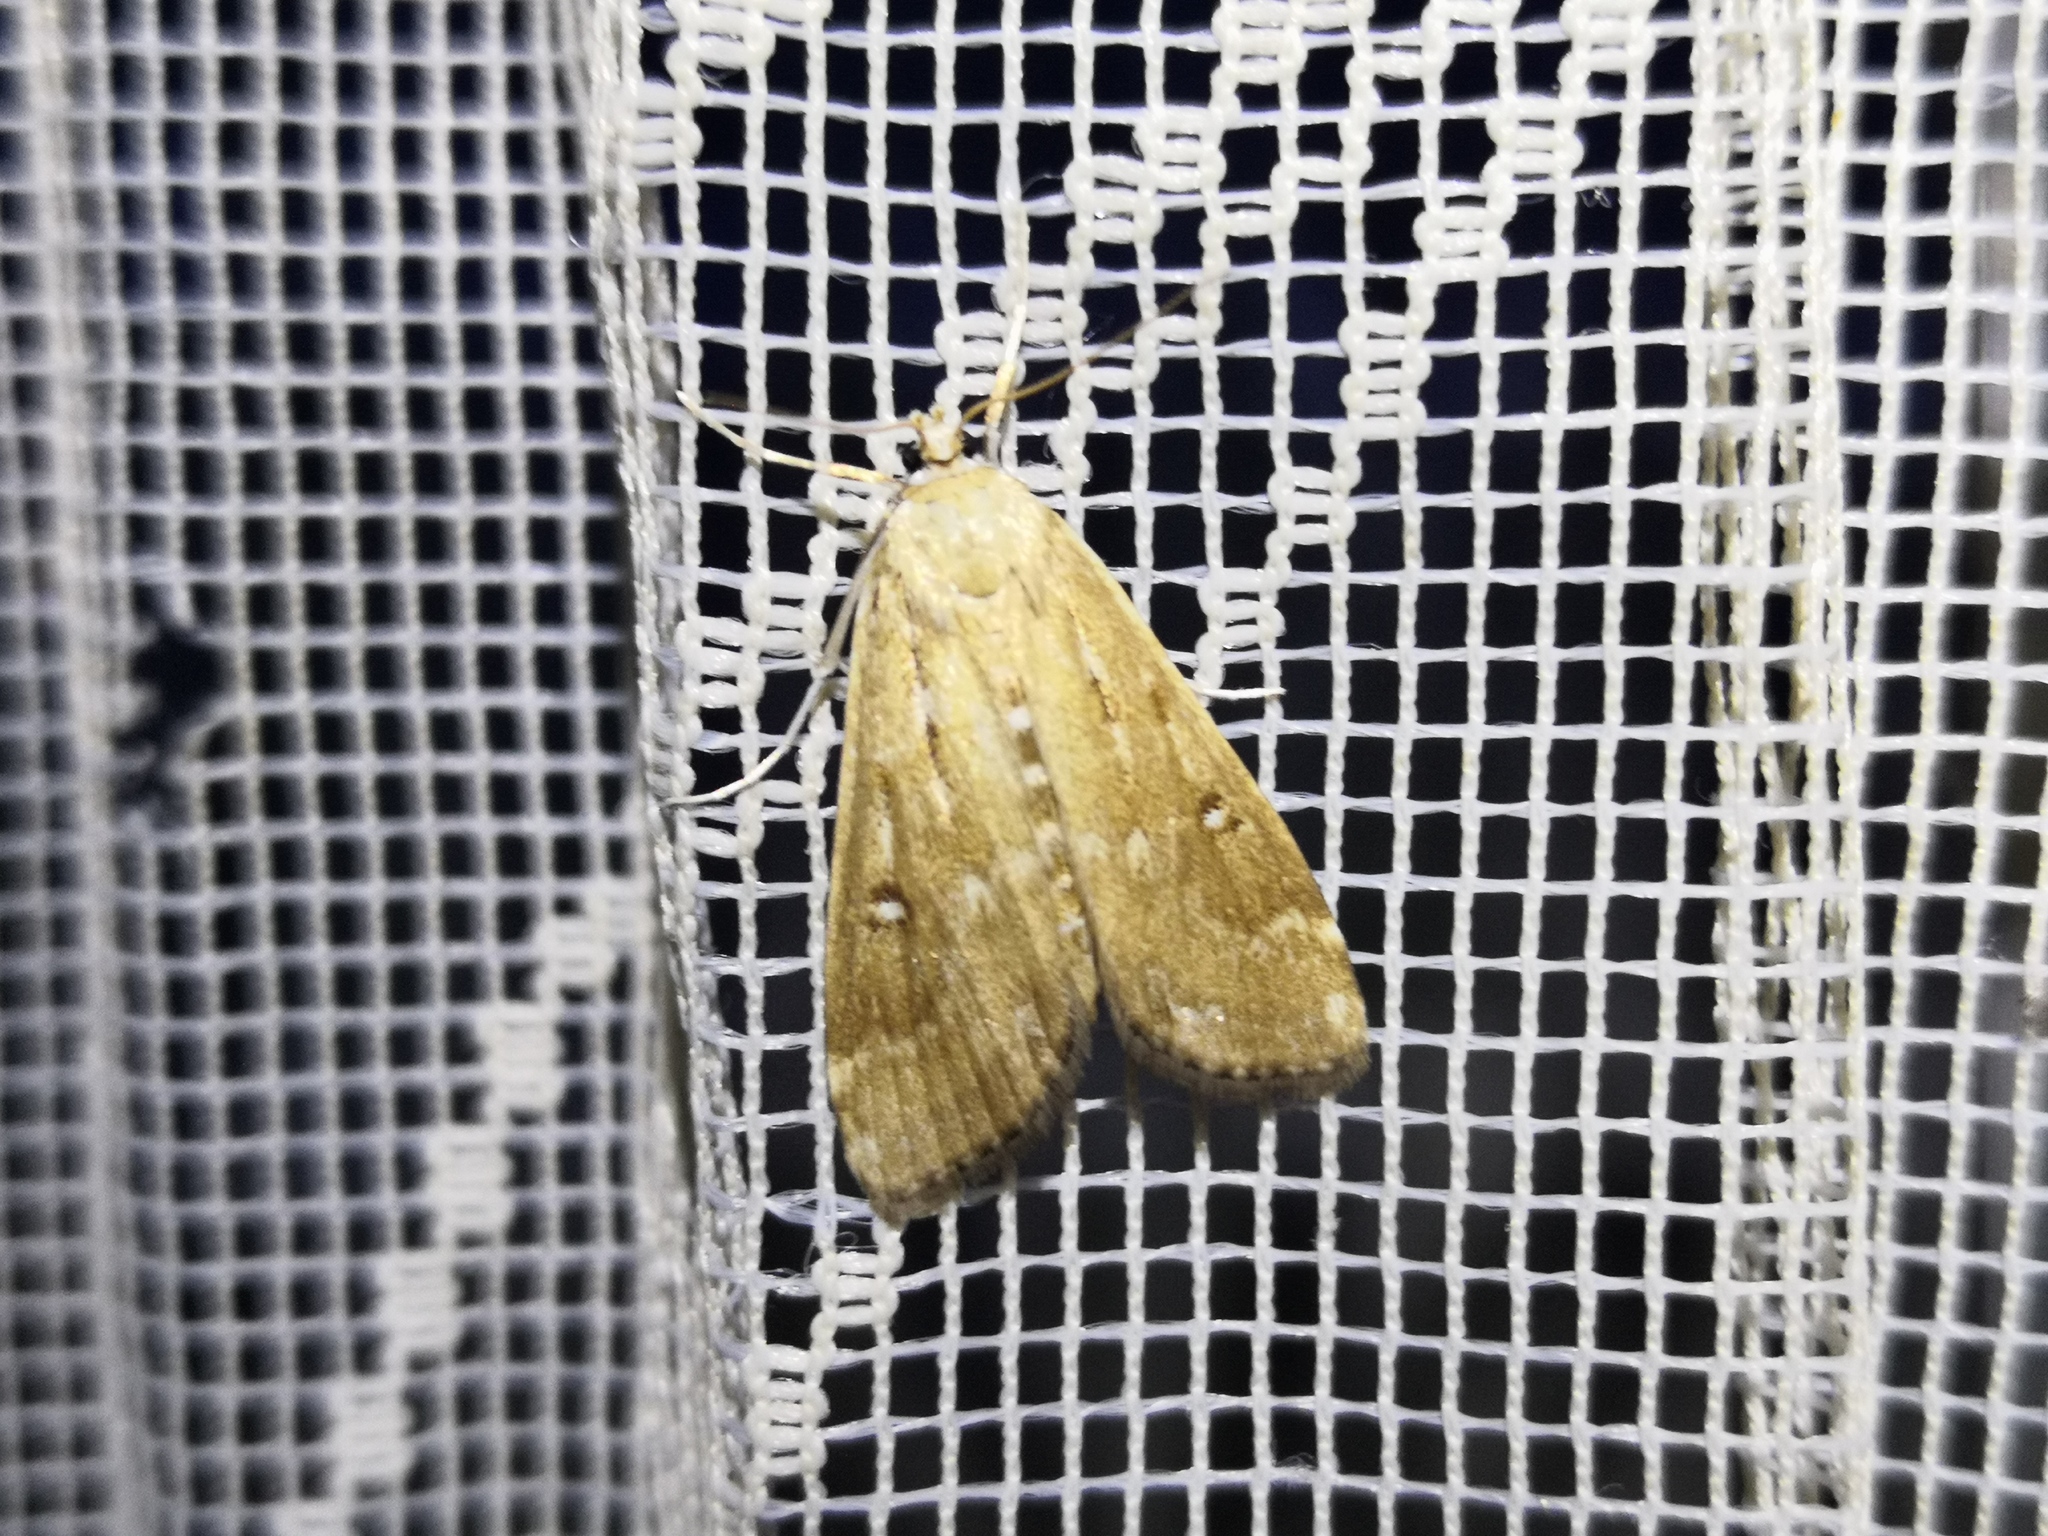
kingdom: Animalia
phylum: Arthropoda
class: Insecta
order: Lepidoptera
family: Crambidae
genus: Parapoynx
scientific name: Parapoynx stratiotata
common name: Ringed china-mark
